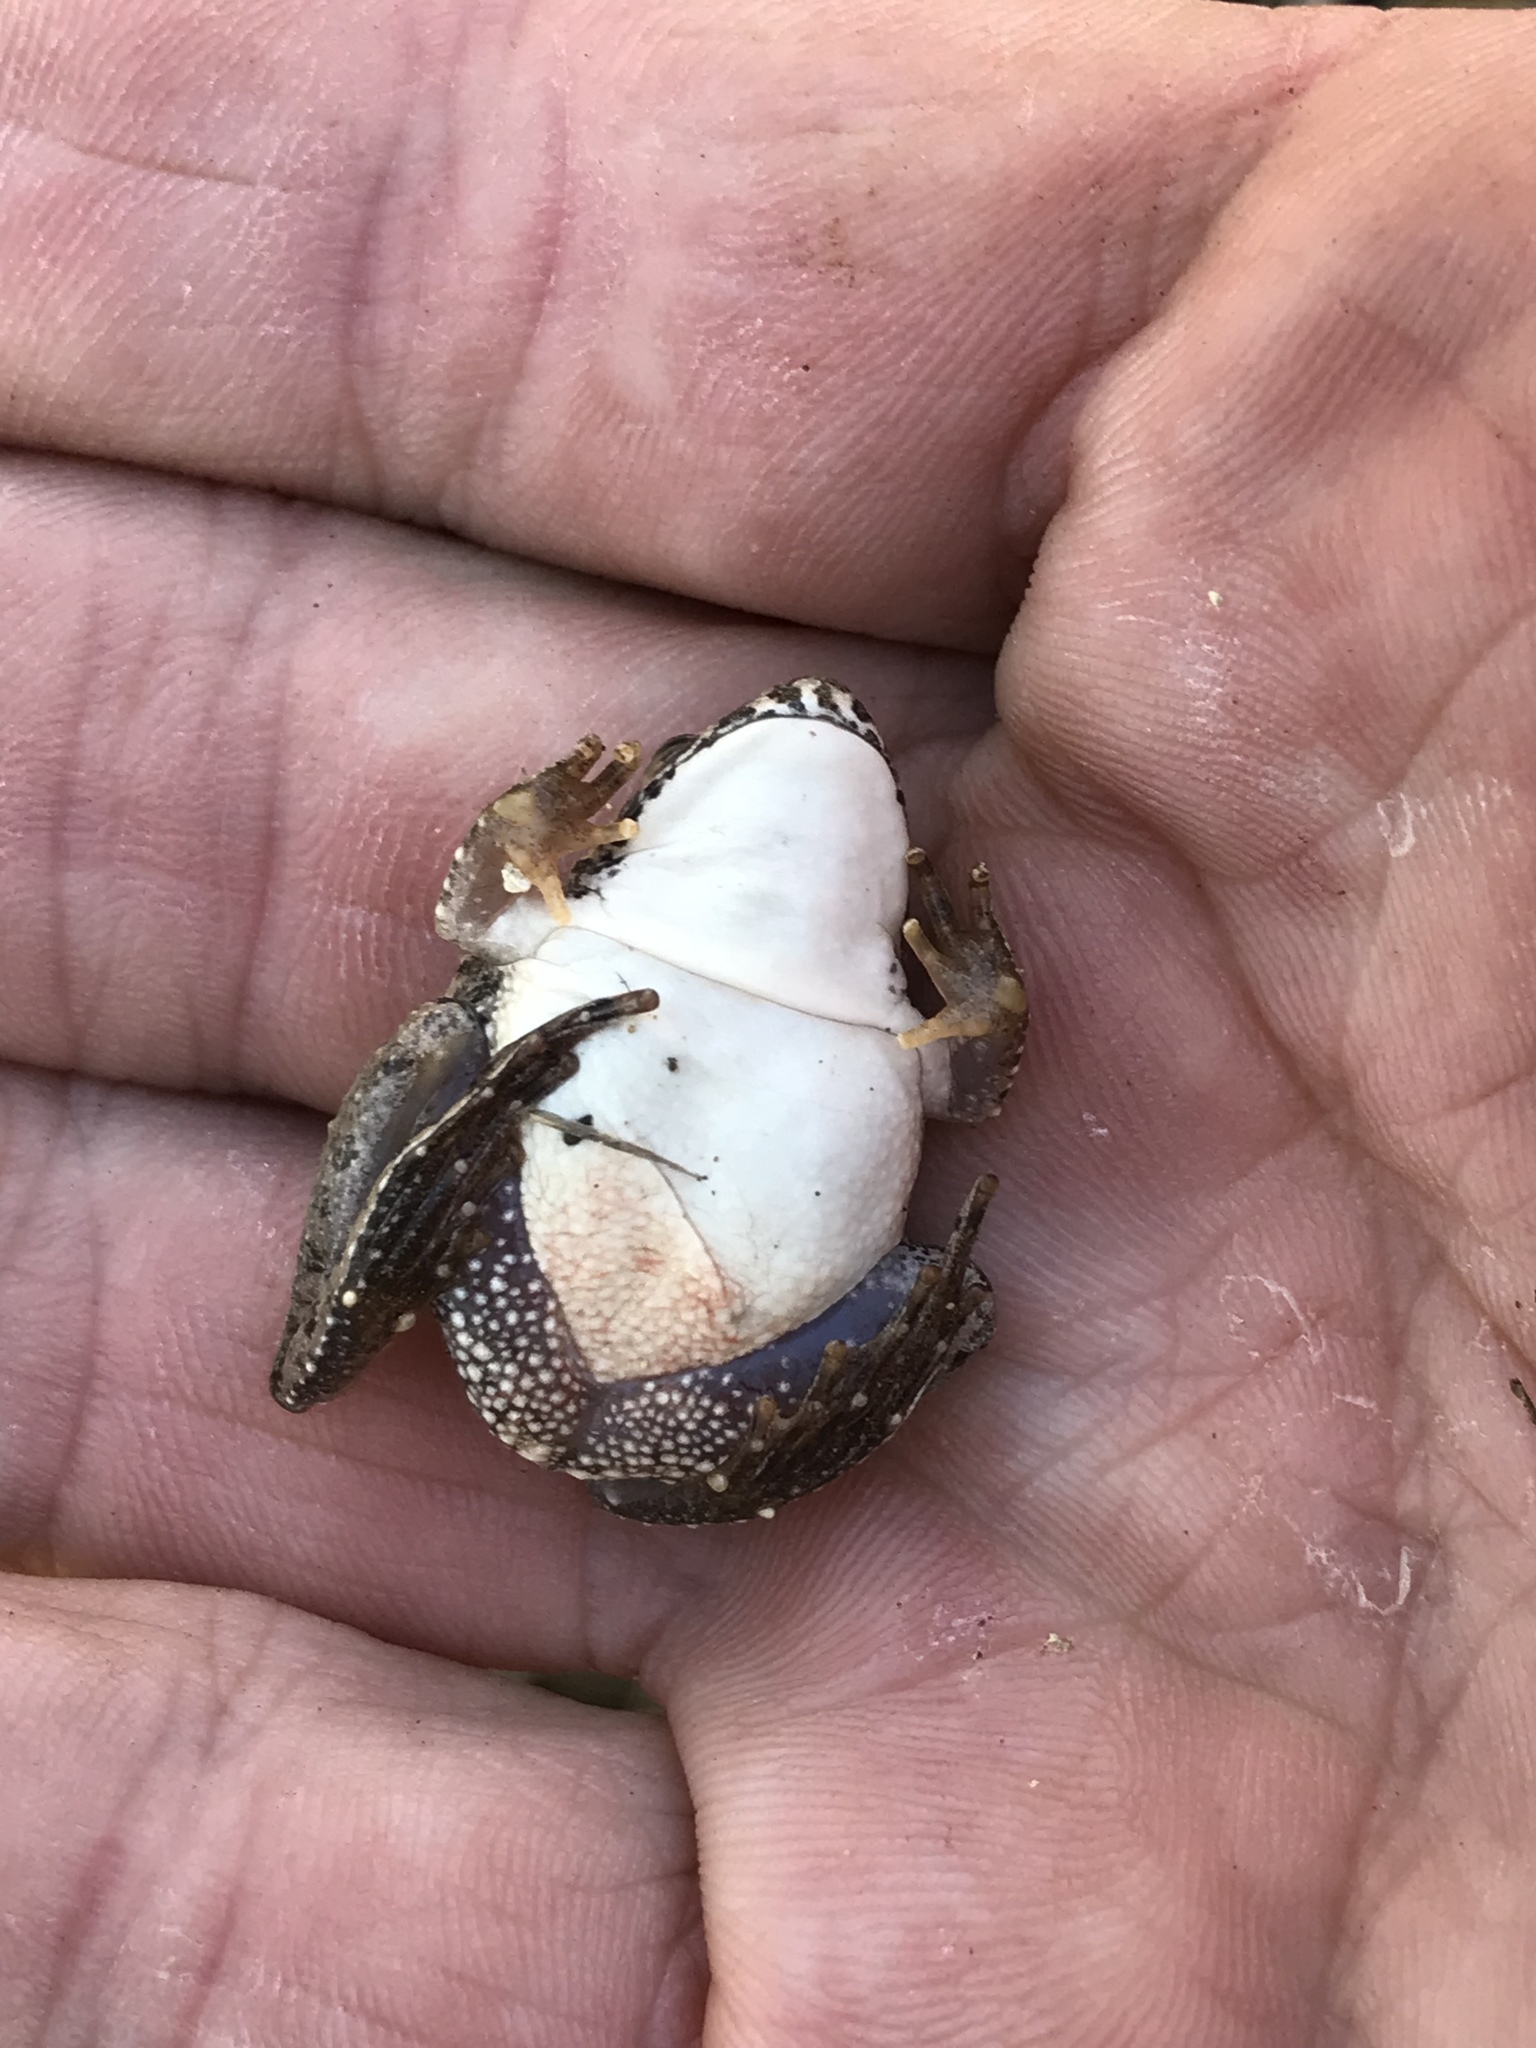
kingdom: Animalia
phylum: Chordata
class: Amphibia
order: Anura
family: Hylidae
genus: Acris
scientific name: Acris blanchardi
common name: Blanchard's cricket frog
